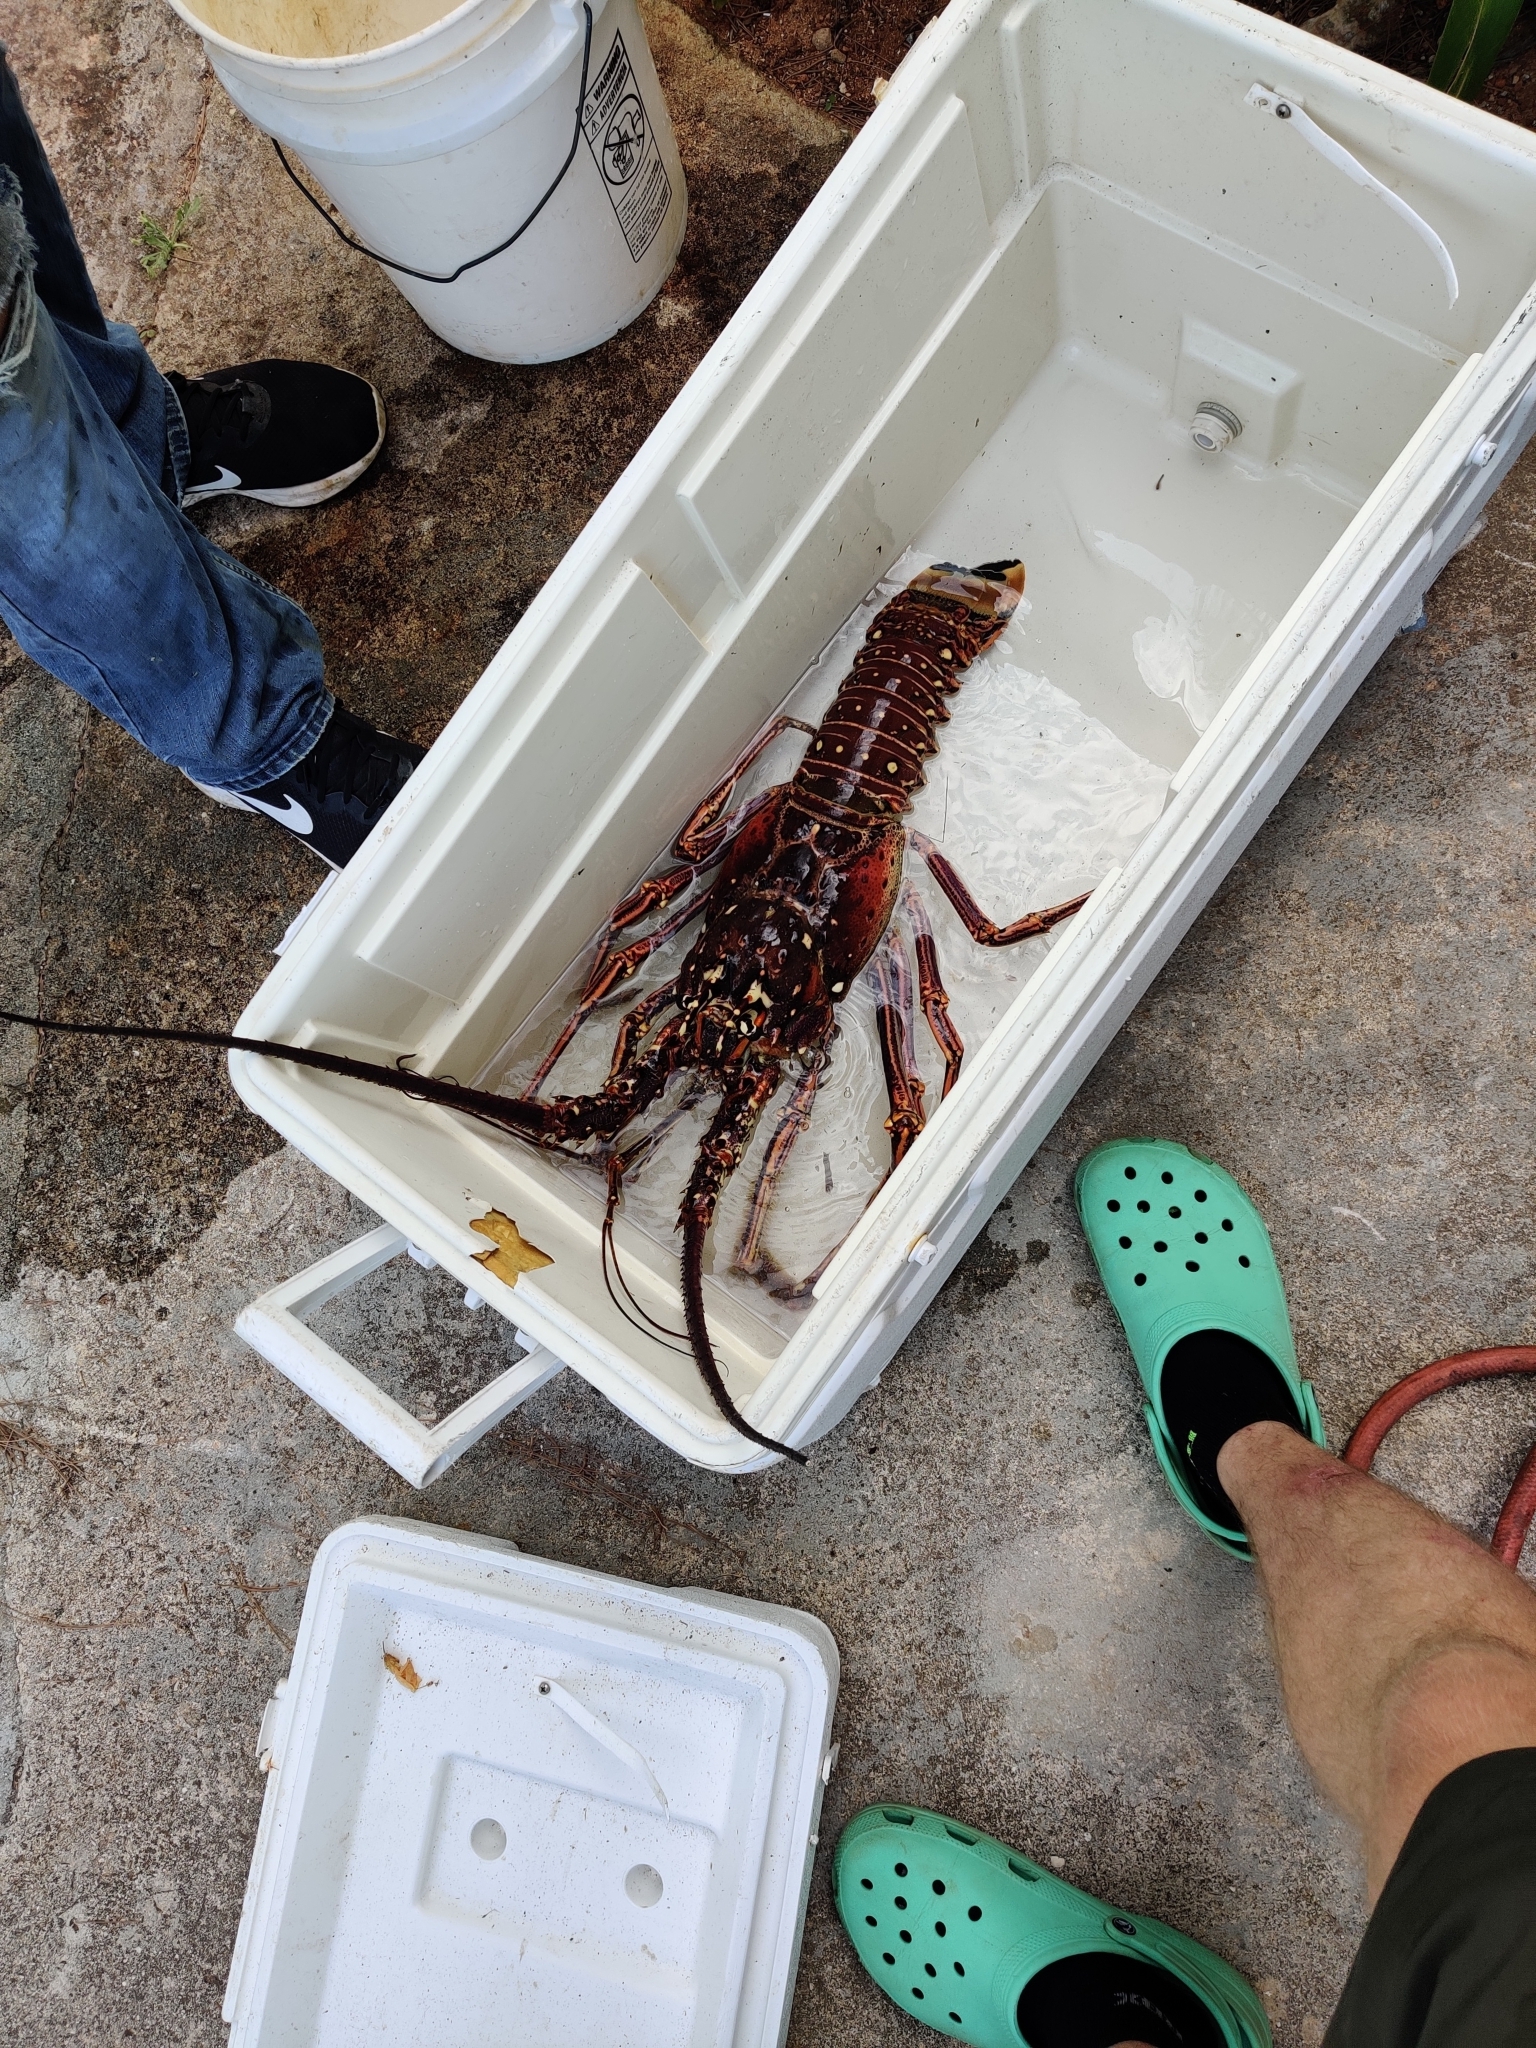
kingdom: Animalia
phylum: Arthropoda
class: Malacostraca
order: Decapoda
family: Palinuridae
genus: Panulirus
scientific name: Panulirus argus
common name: Caribbean spiny lobster
